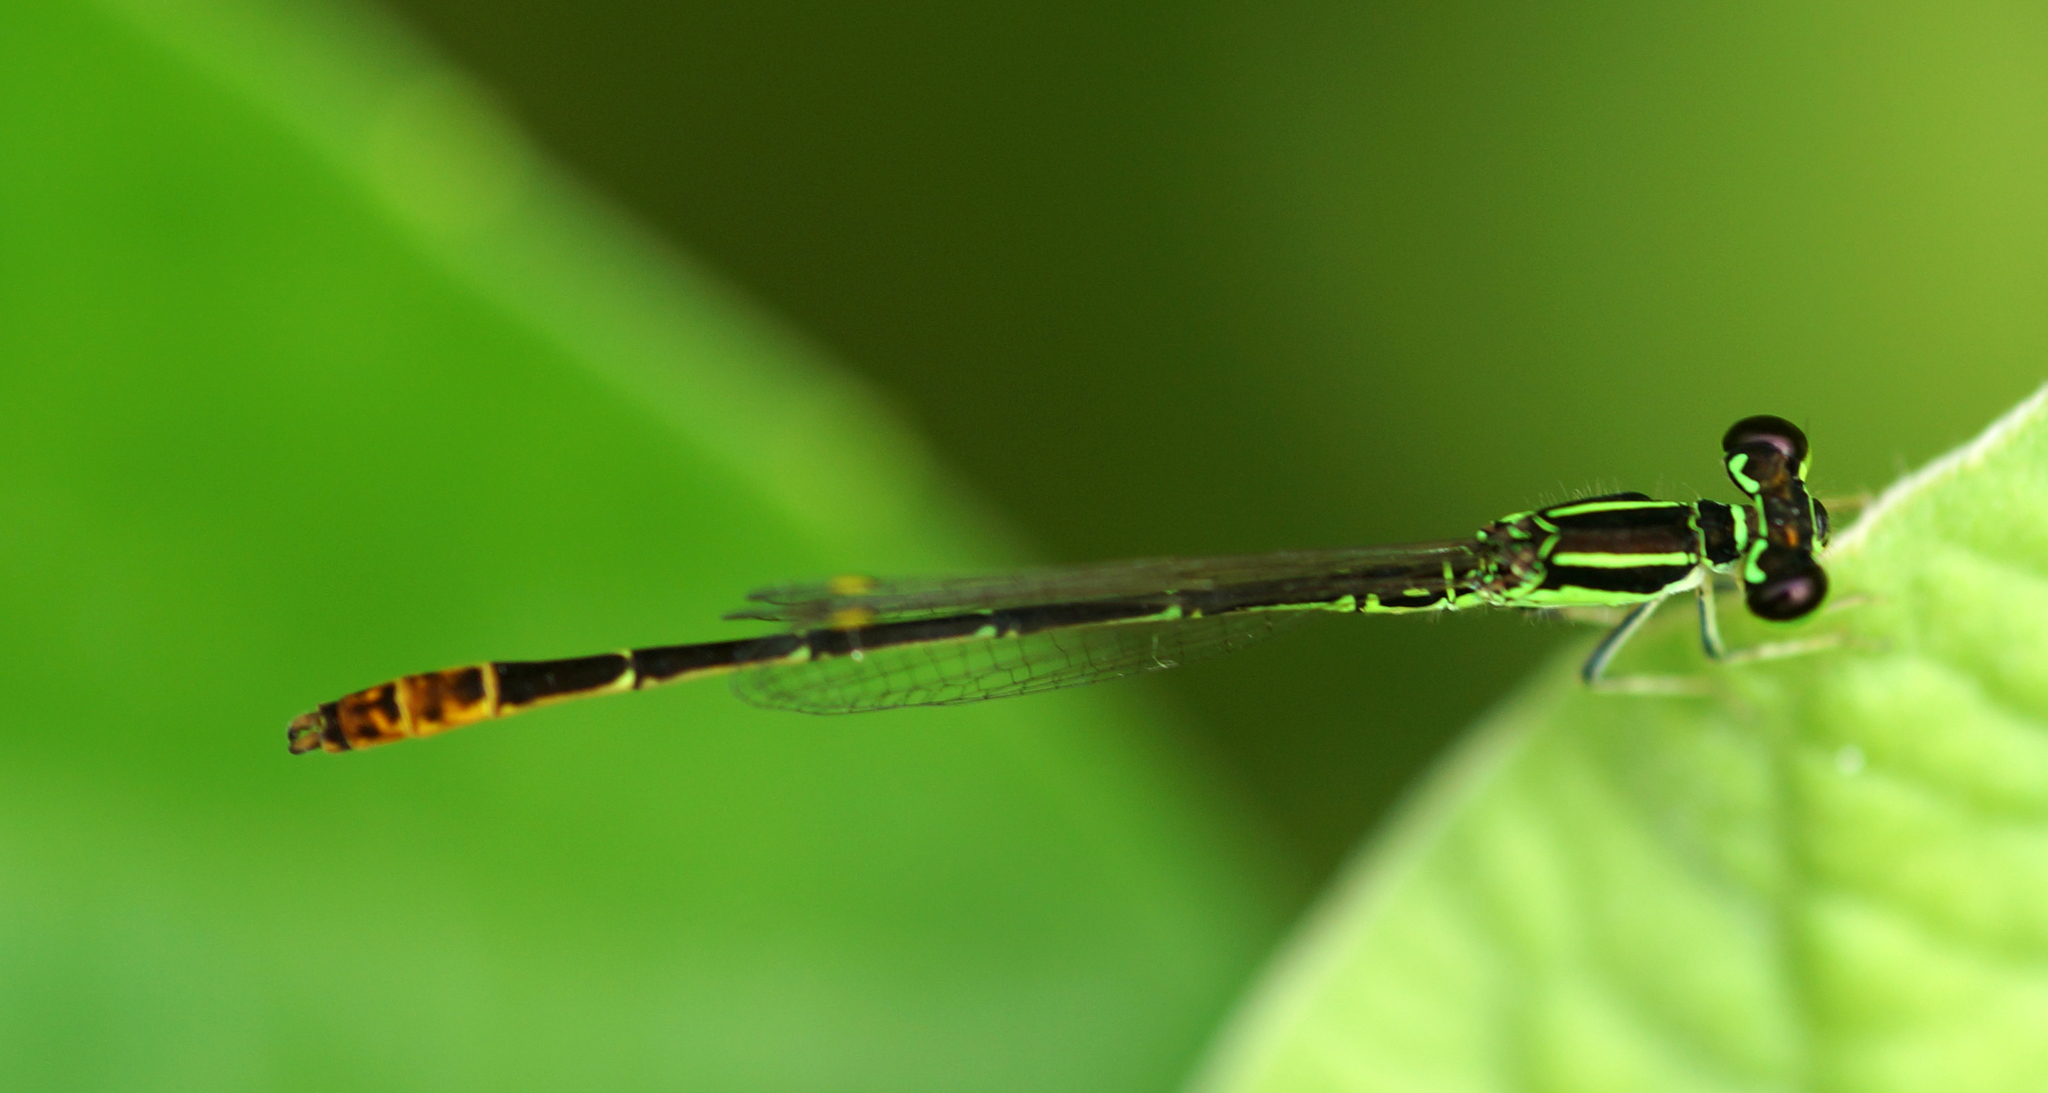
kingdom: Animalia
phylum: Arthropoda
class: Insecta
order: Odonata
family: Coenagrionidae
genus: Agriocnemis
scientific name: Agriocnemis minima
